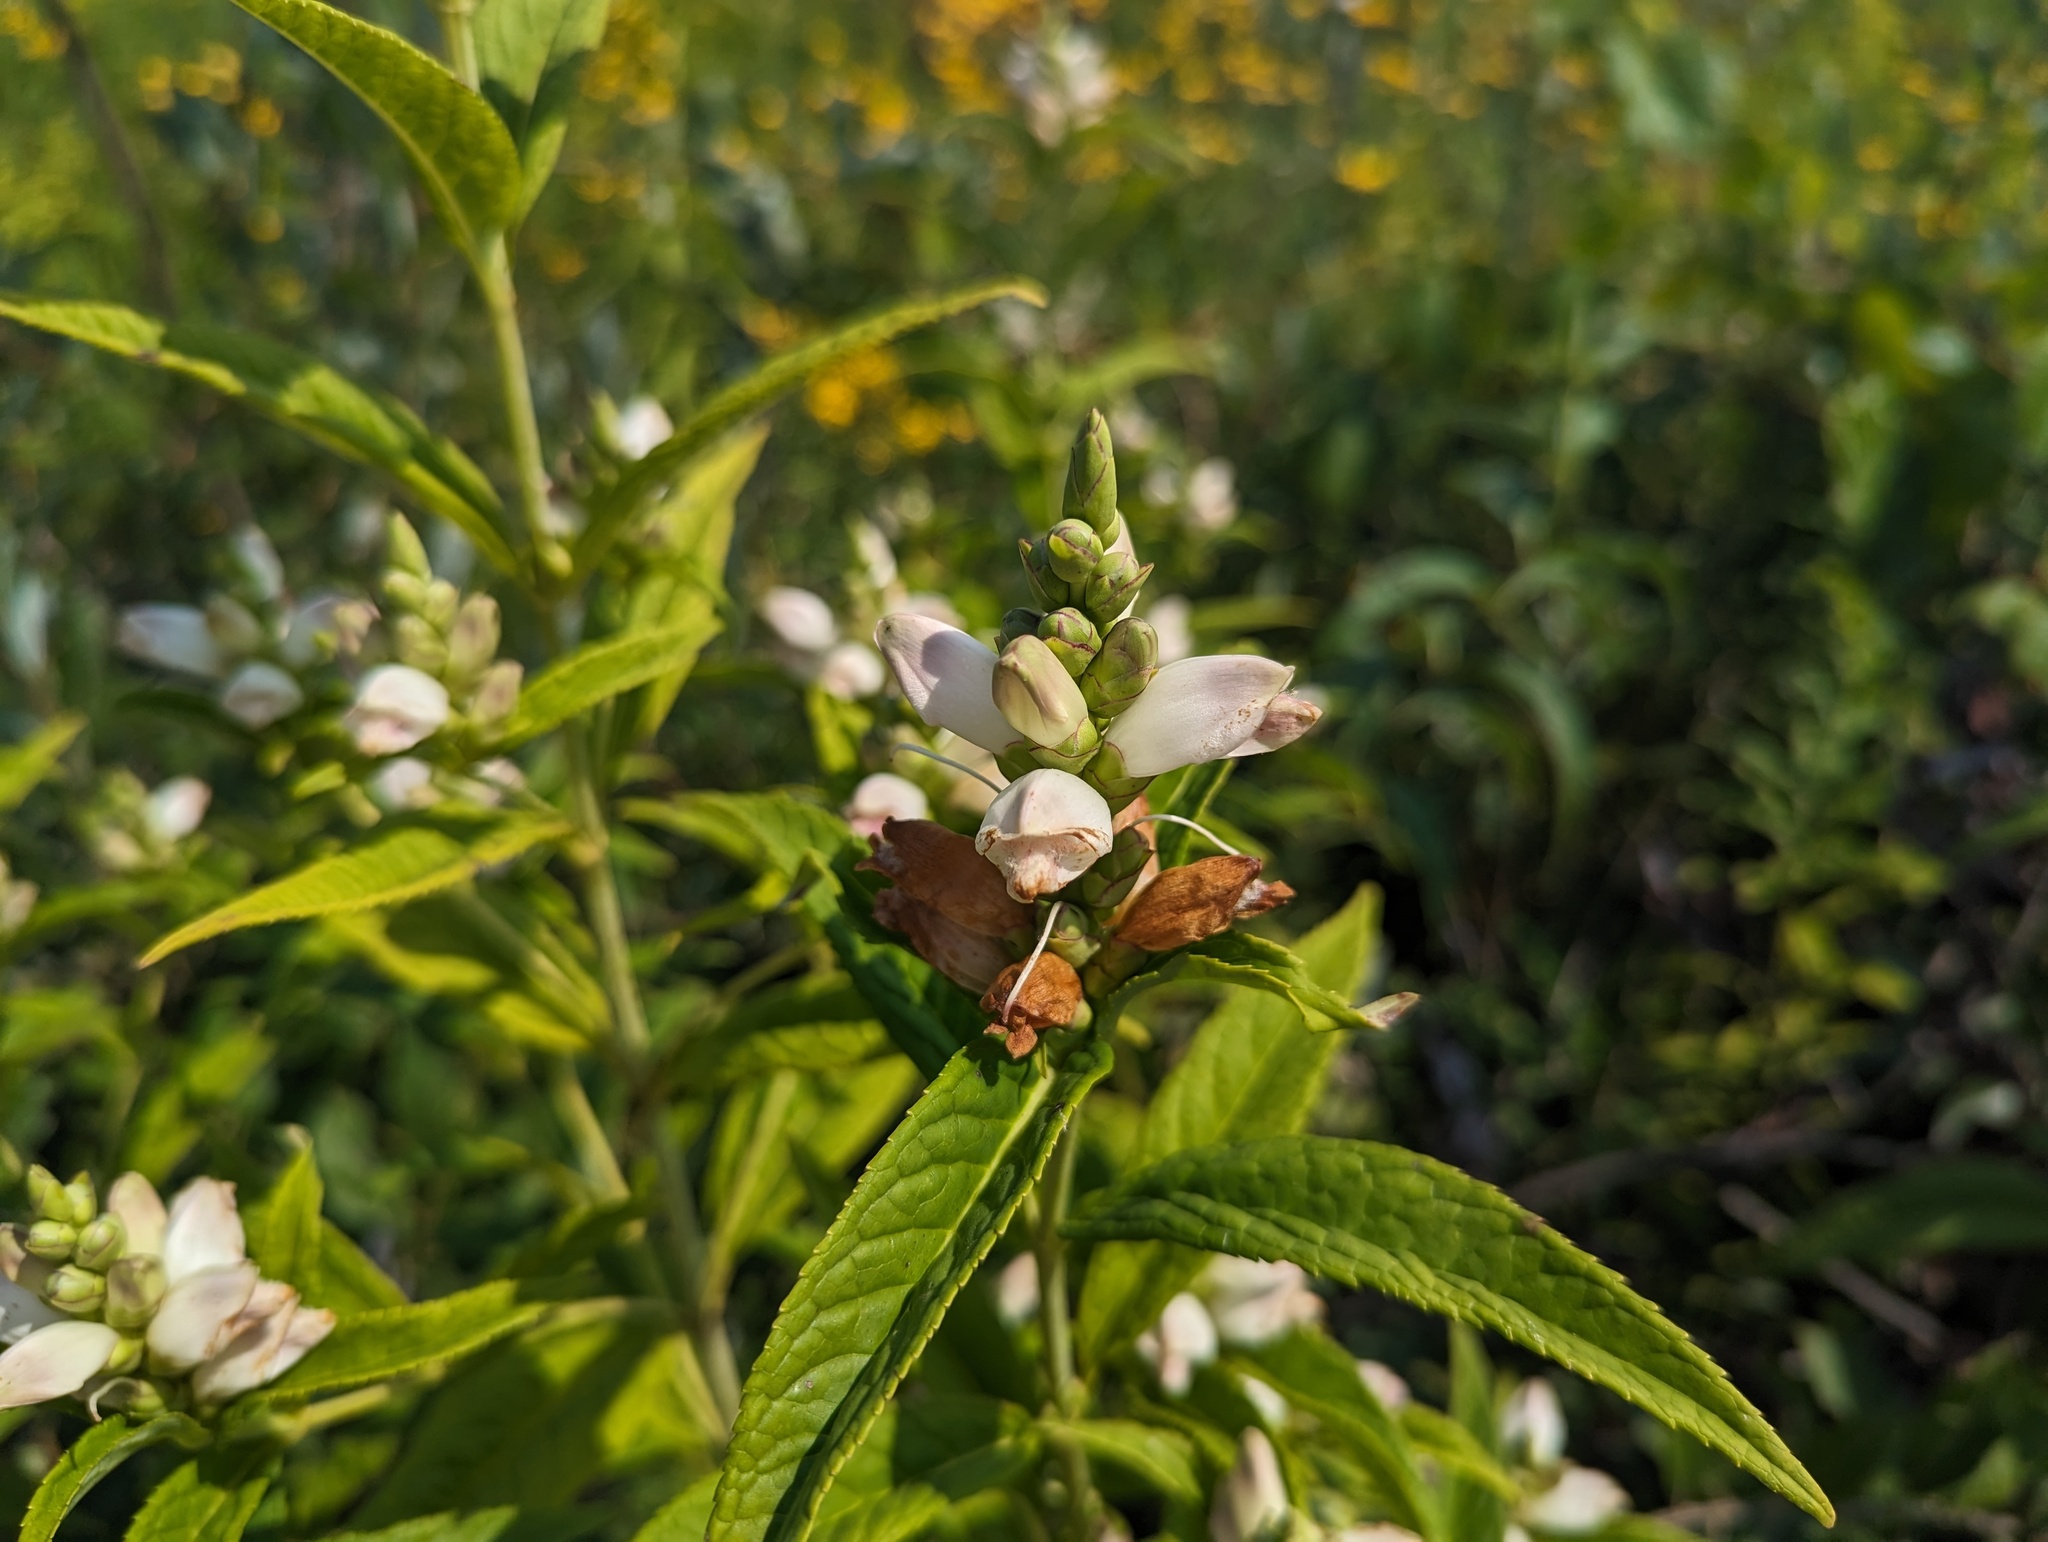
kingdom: Plantae
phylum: Tracheophyta
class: Magnoliopsida
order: Lamiales
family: Plantaginaceae
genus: Chelone
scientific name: Chelone glabra
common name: Snakehead
